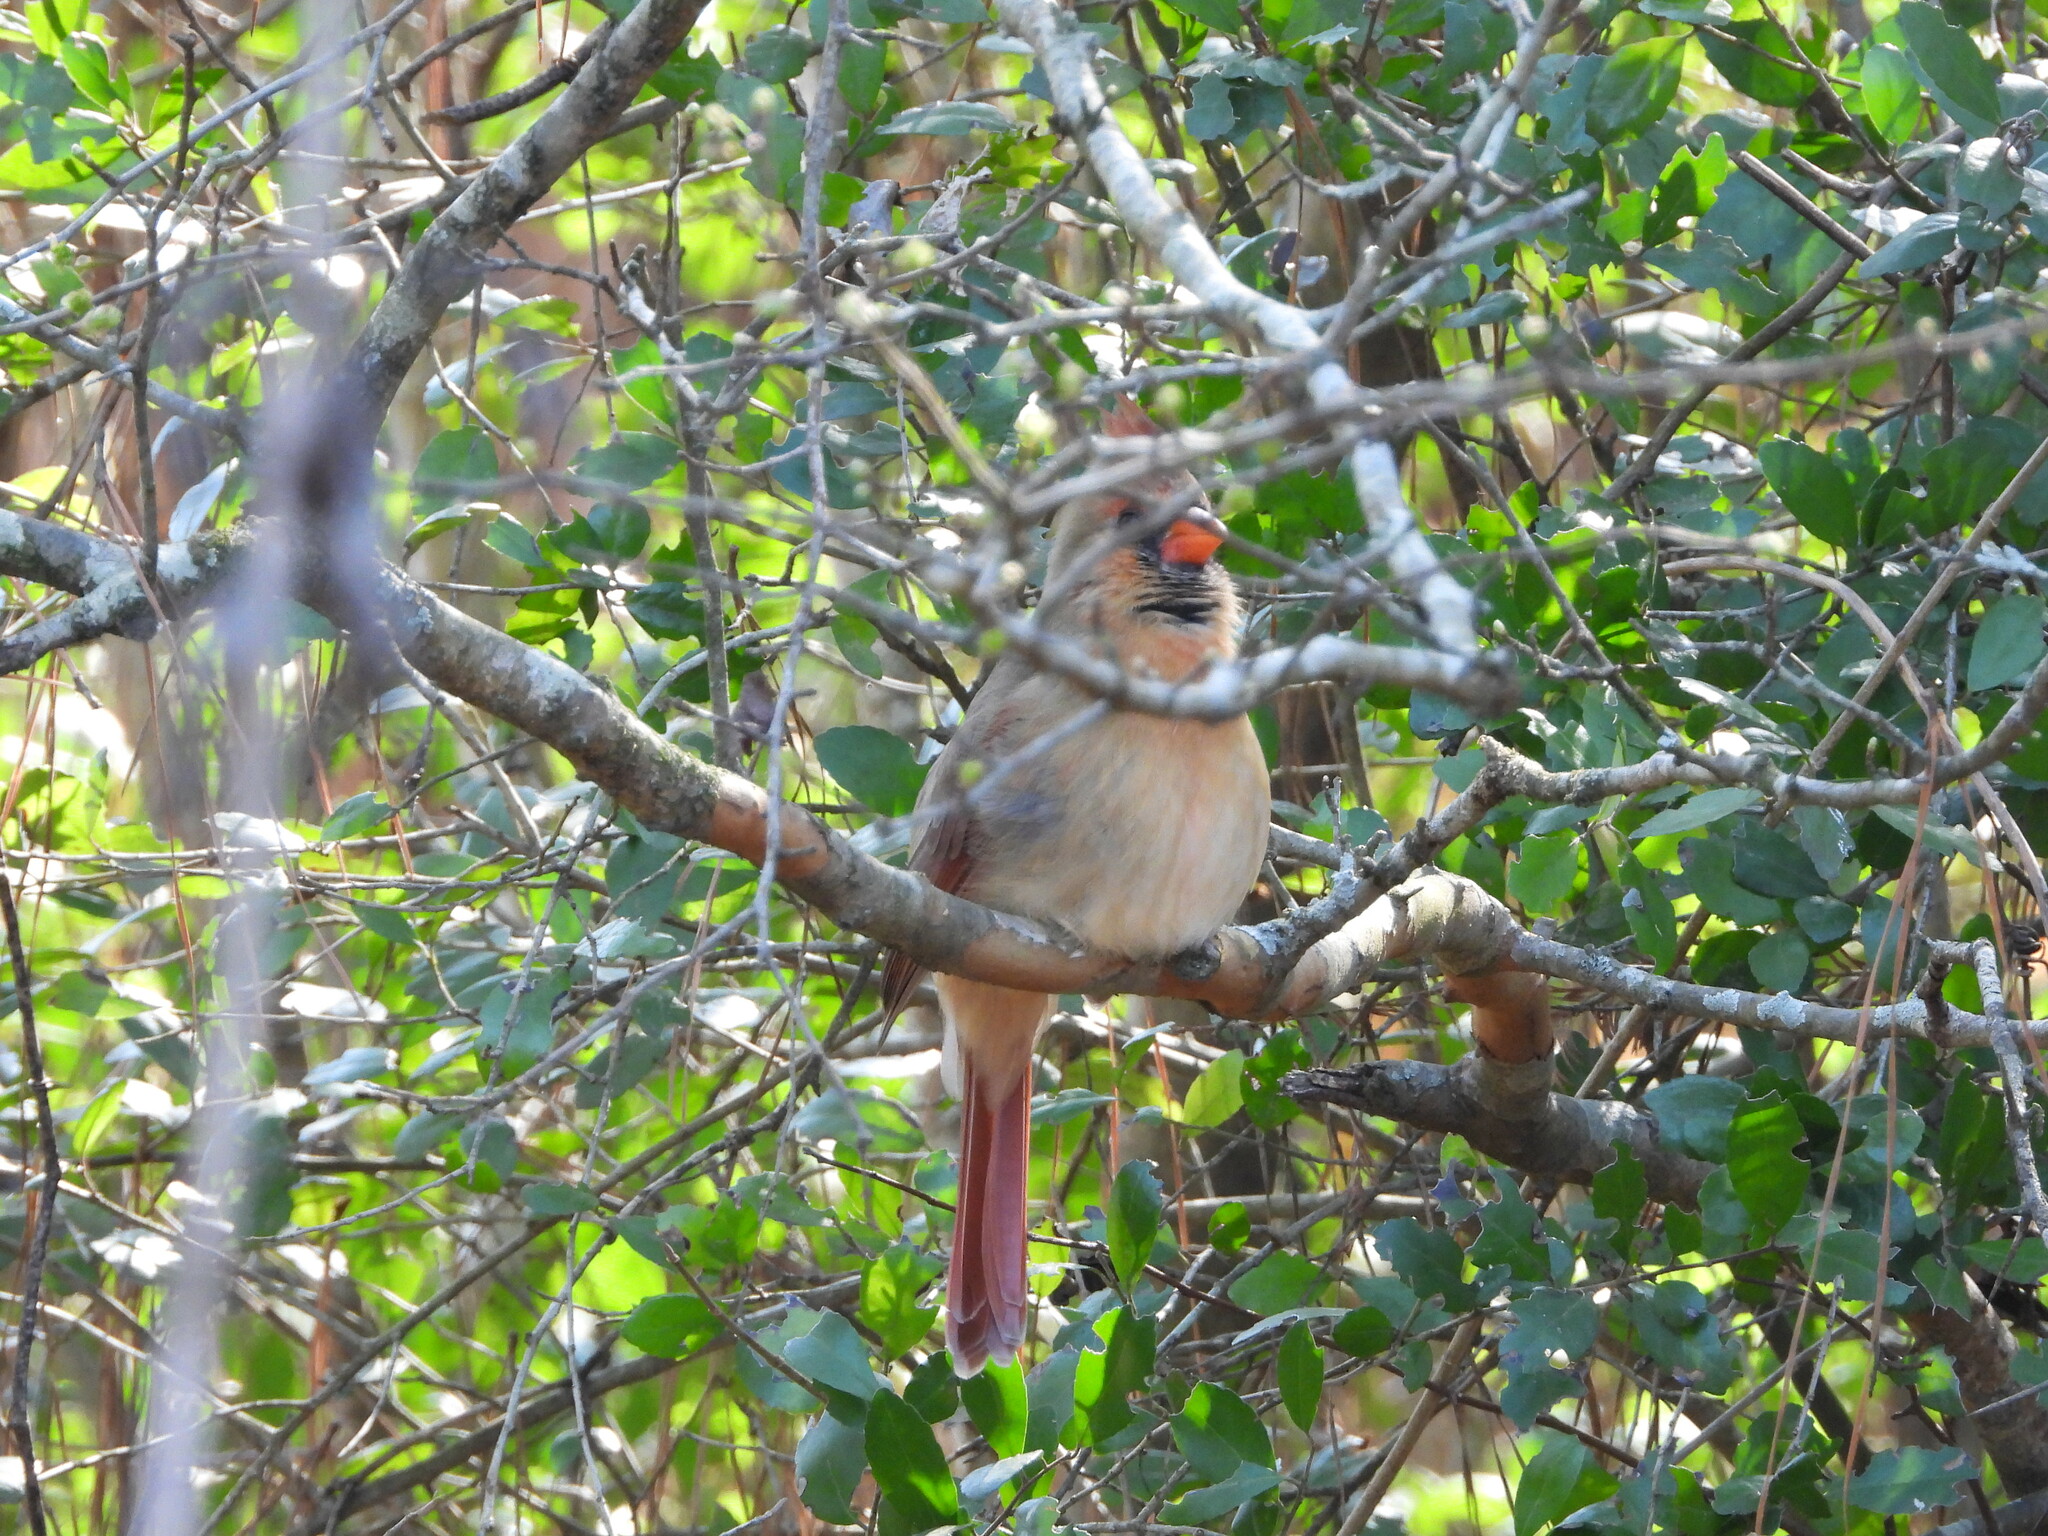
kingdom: Animalia
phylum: Chordata
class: Aves
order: Passeriformes
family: Cardinalidae
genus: Cardinalis
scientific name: Cardinalis cardinalis
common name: Northern cardinal
